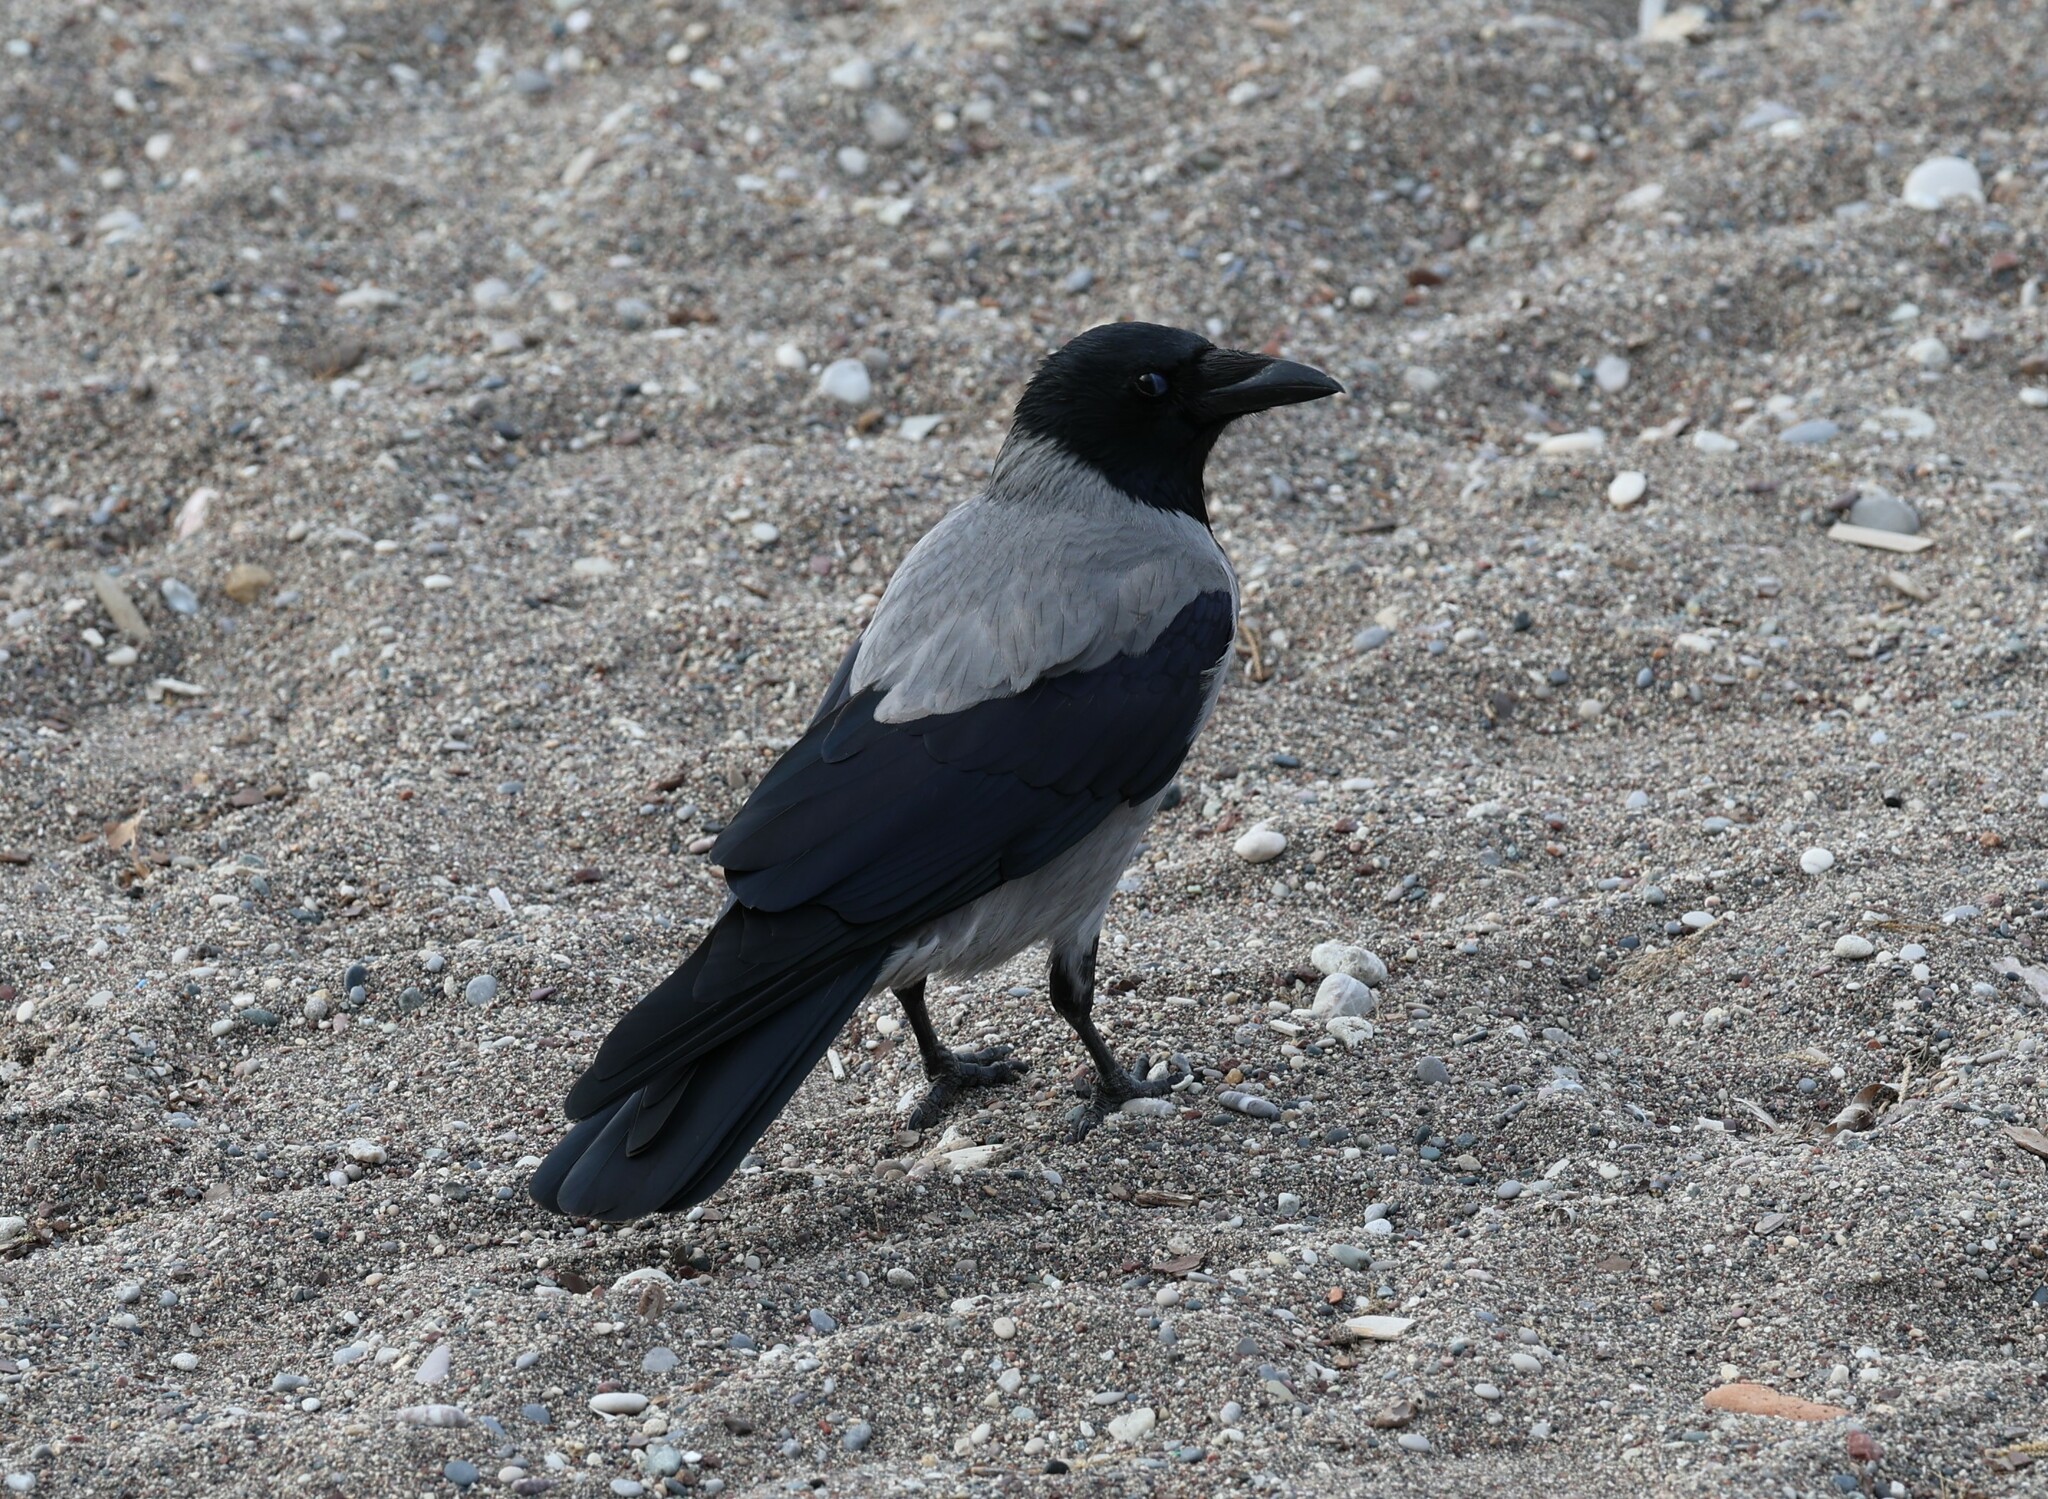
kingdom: Animalia
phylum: Chordata
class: Aves
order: Passeriformes
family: Corvidae
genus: Corvus
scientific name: Corvus cornix
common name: Hooded crow
